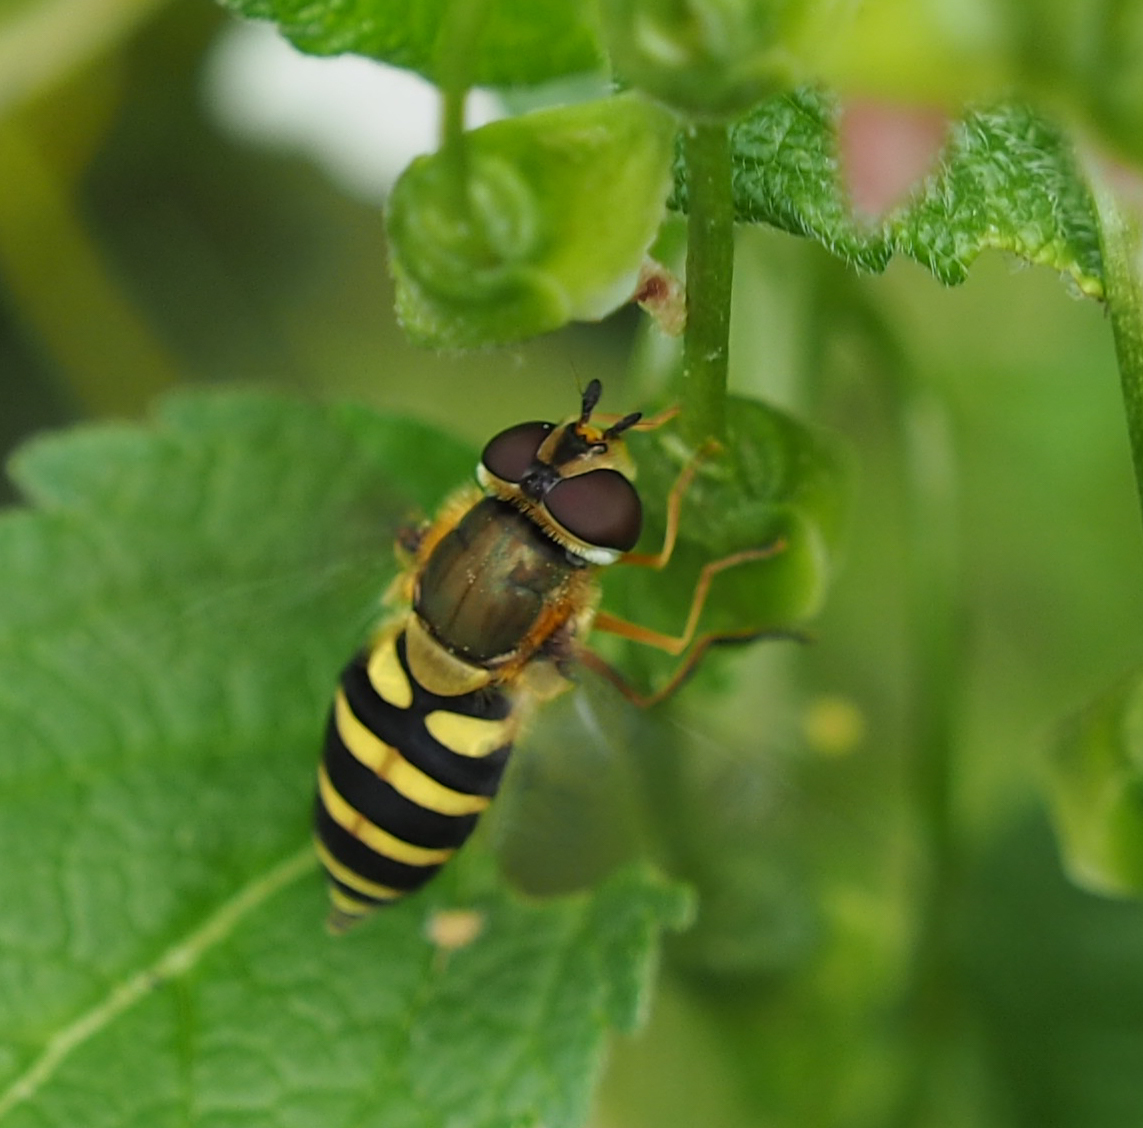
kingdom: Animalia
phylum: Arthropoda
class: Insecta
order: Diptera
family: Syrphidae
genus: Syrphus
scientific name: Syrphus
